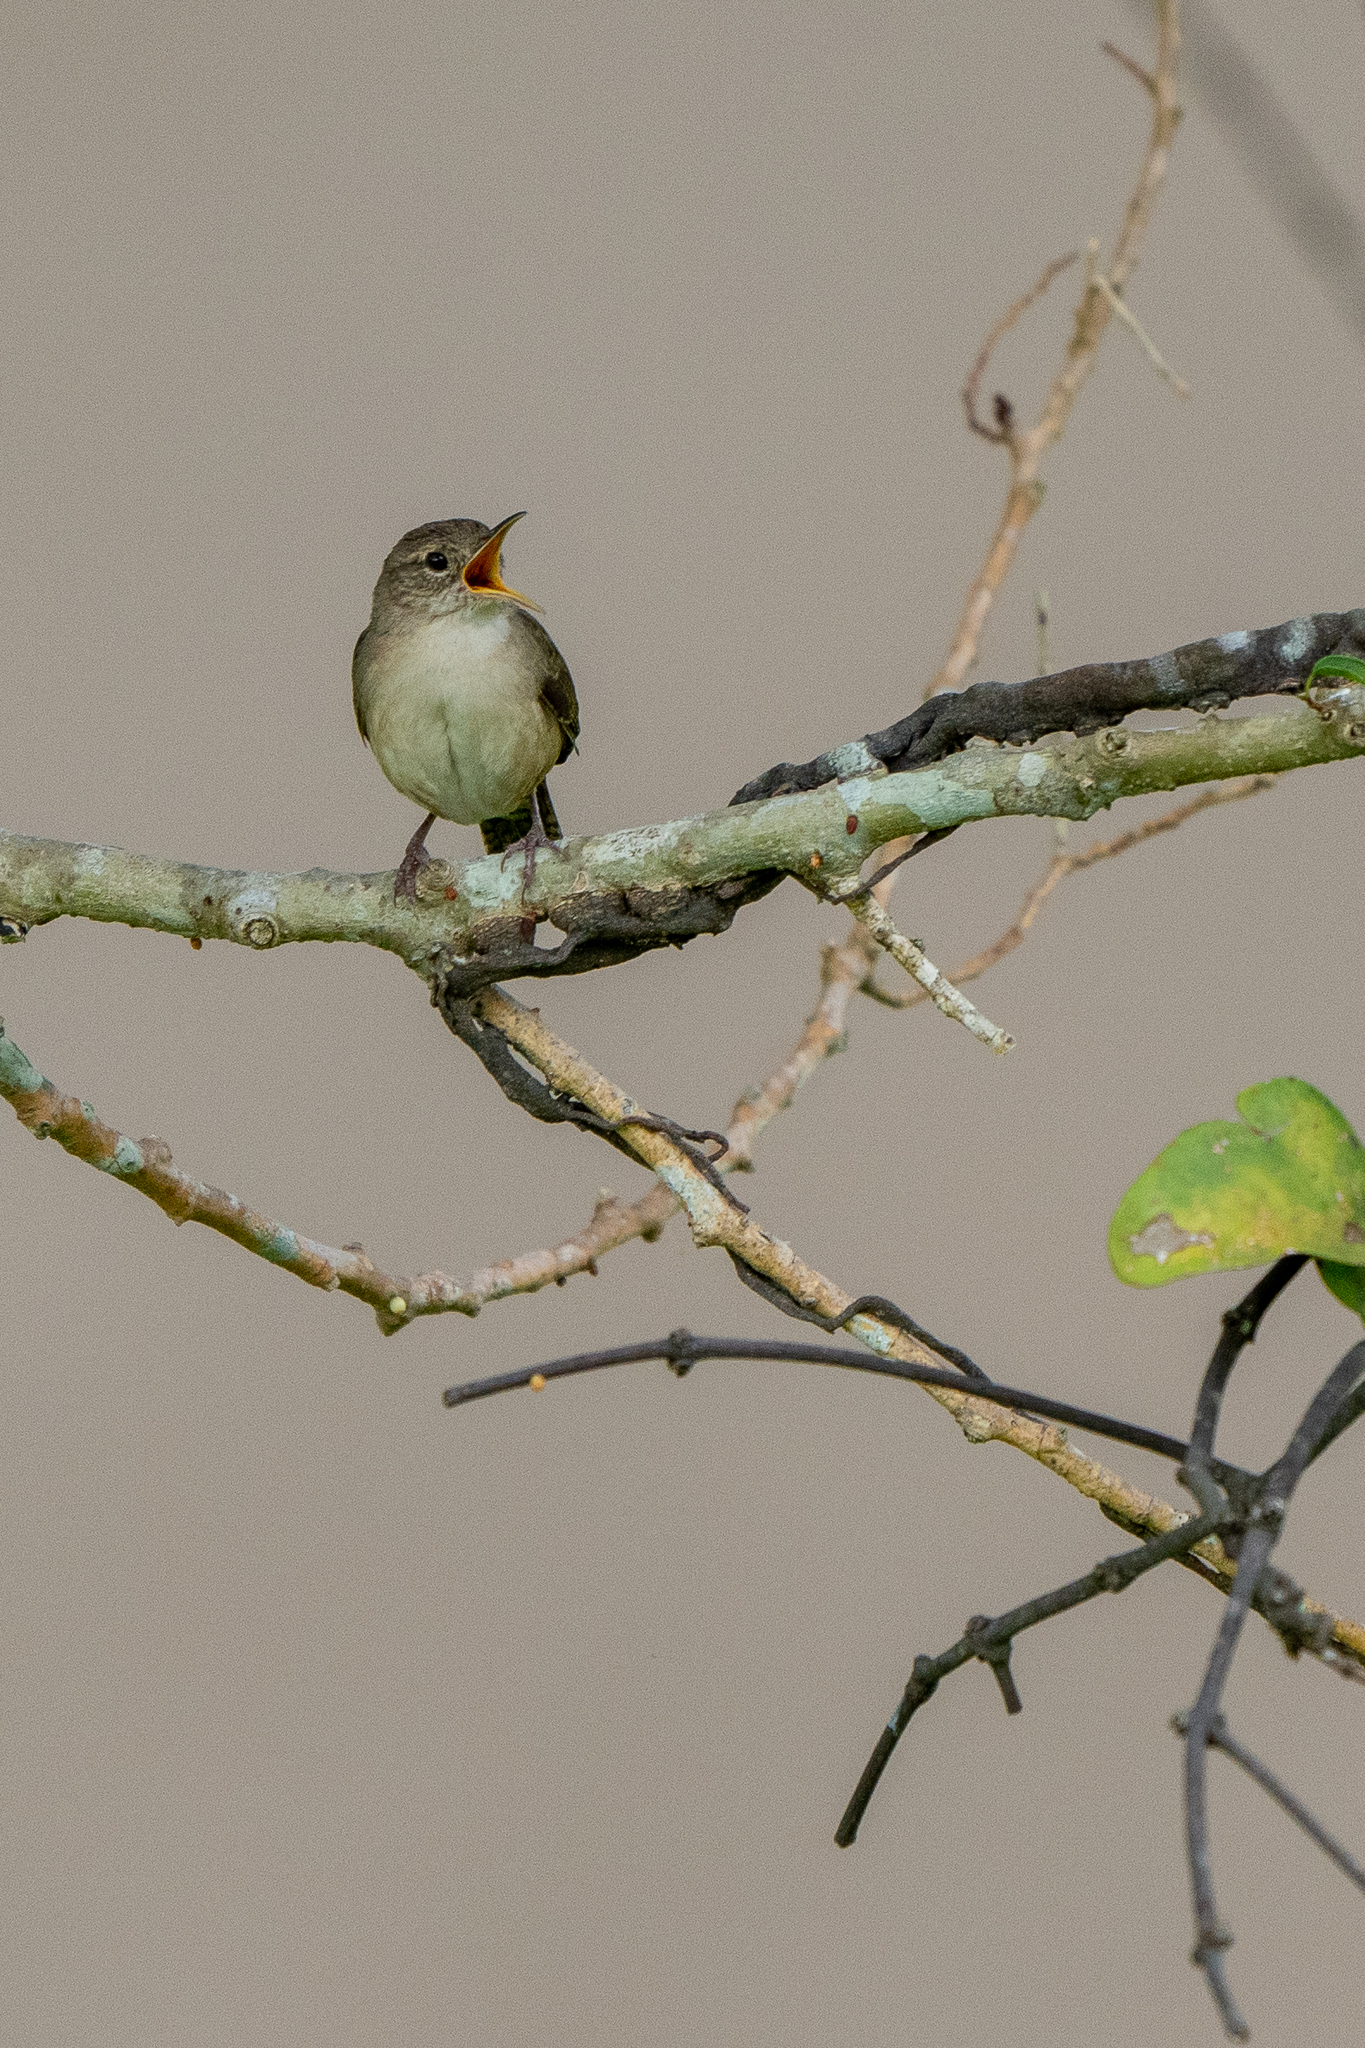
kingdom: Animalia
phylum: Chordata
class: Aves
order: Passeriformes
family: Troglodytidae
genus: Troglodytes
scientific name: Troglodytes aedon
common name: House wren
